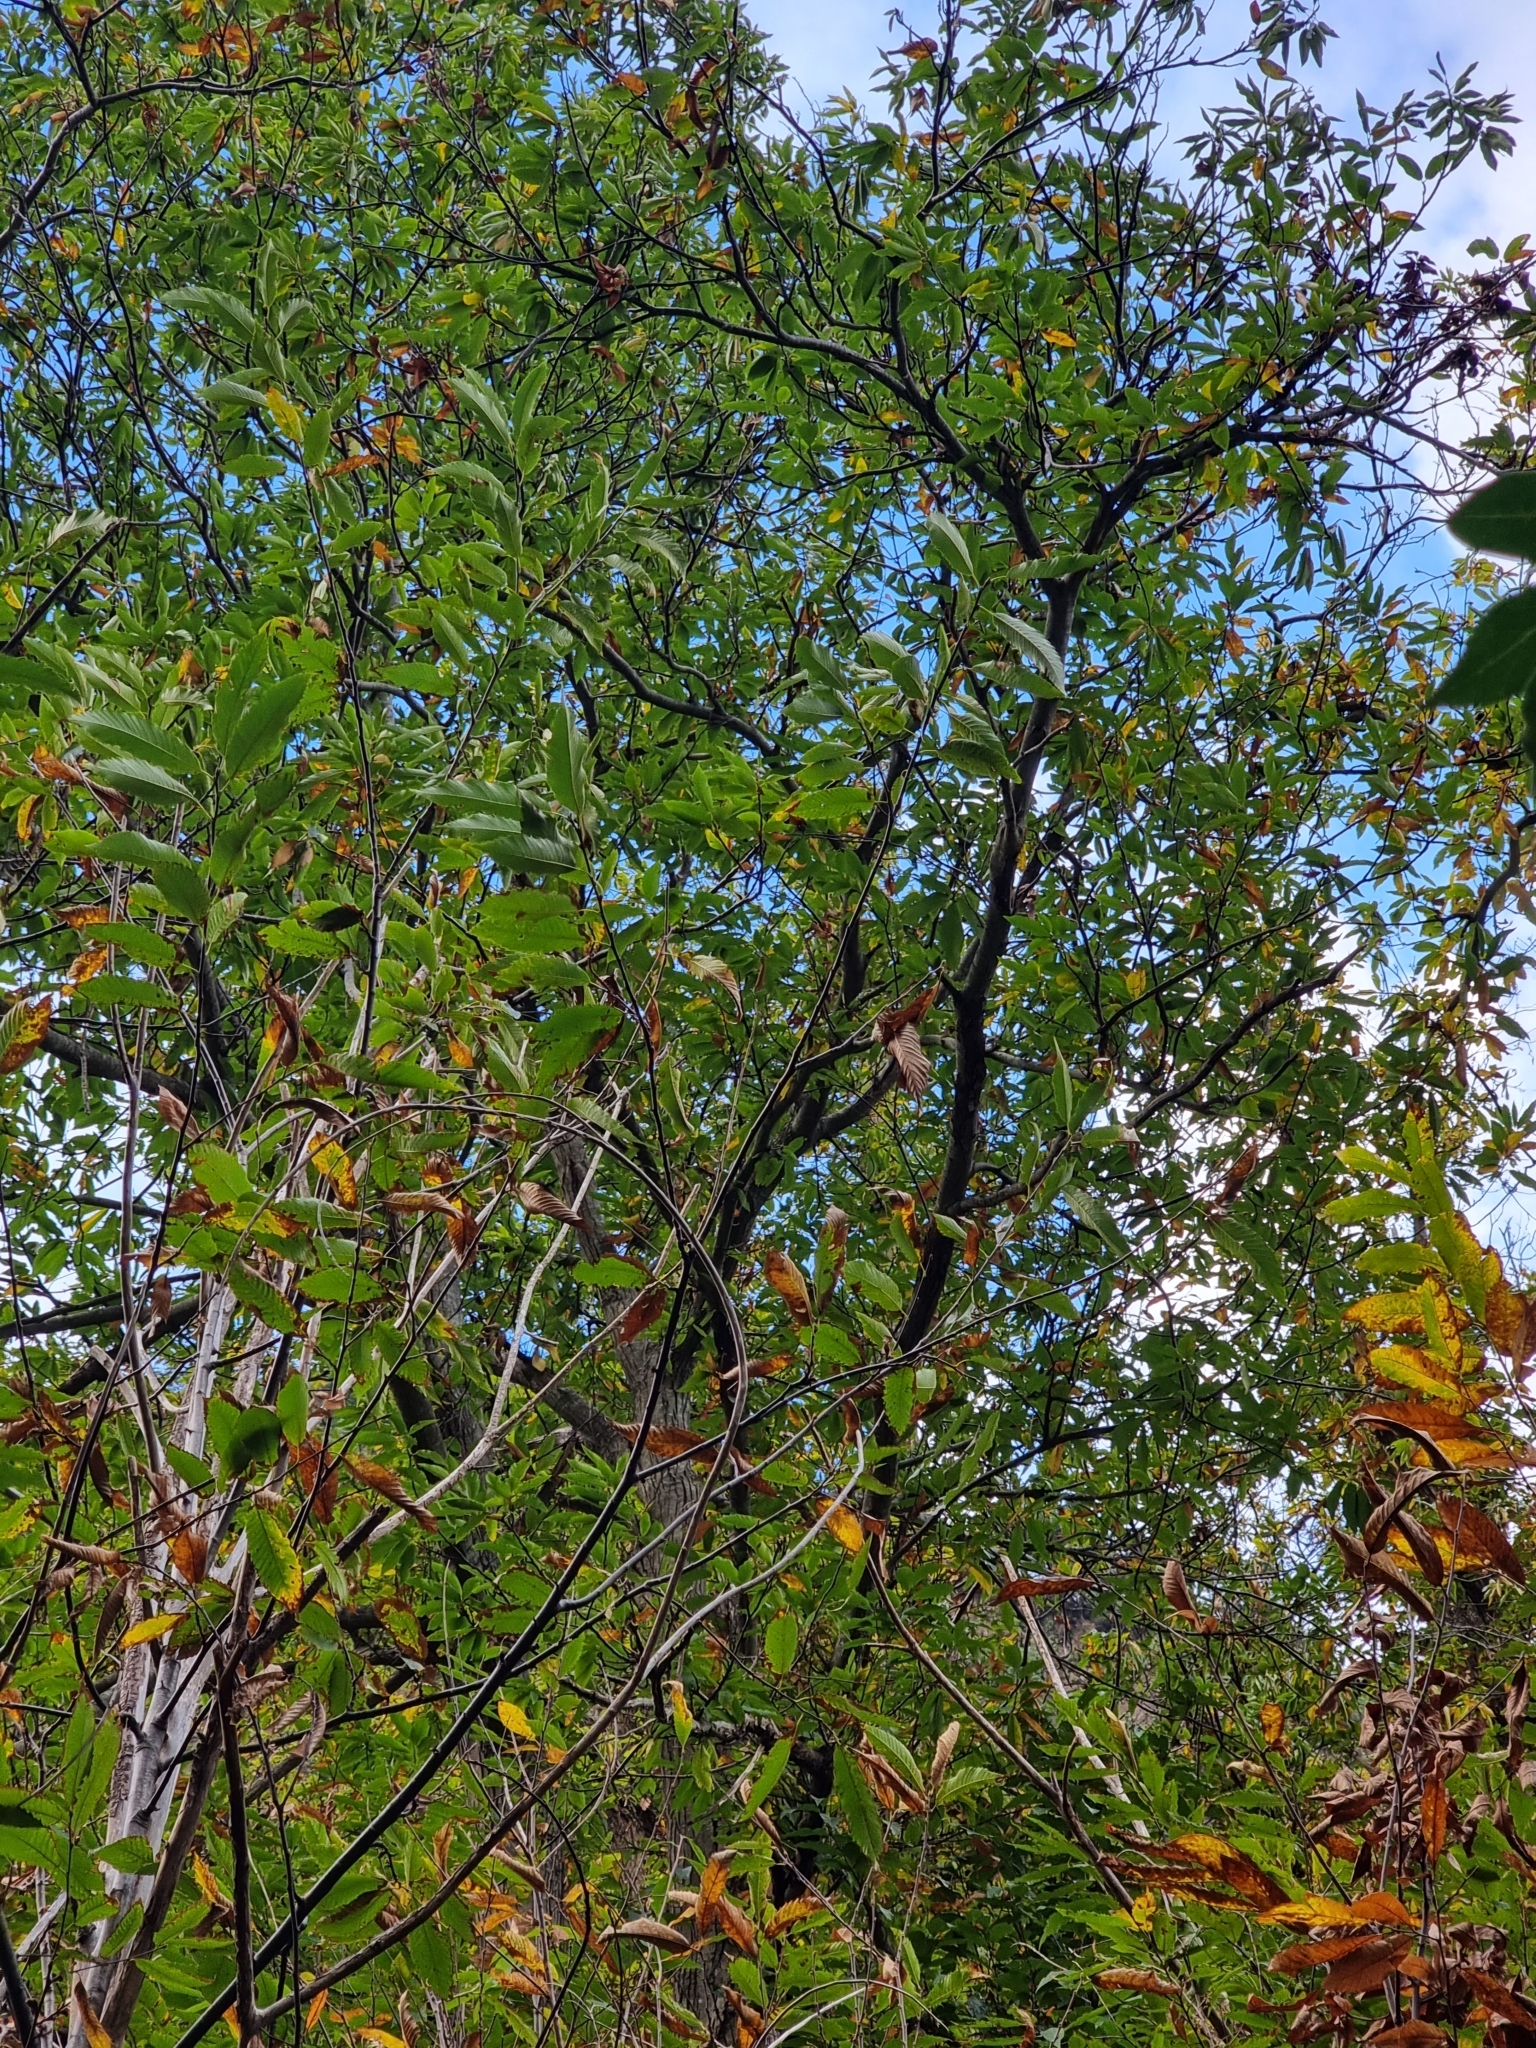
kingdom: Plantae
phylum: Tracheophyta
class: Magnoliopsida
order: Fagales
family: Fagaceae
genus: Castanea
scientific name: Castanea sativa
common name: Sweet chestnut
